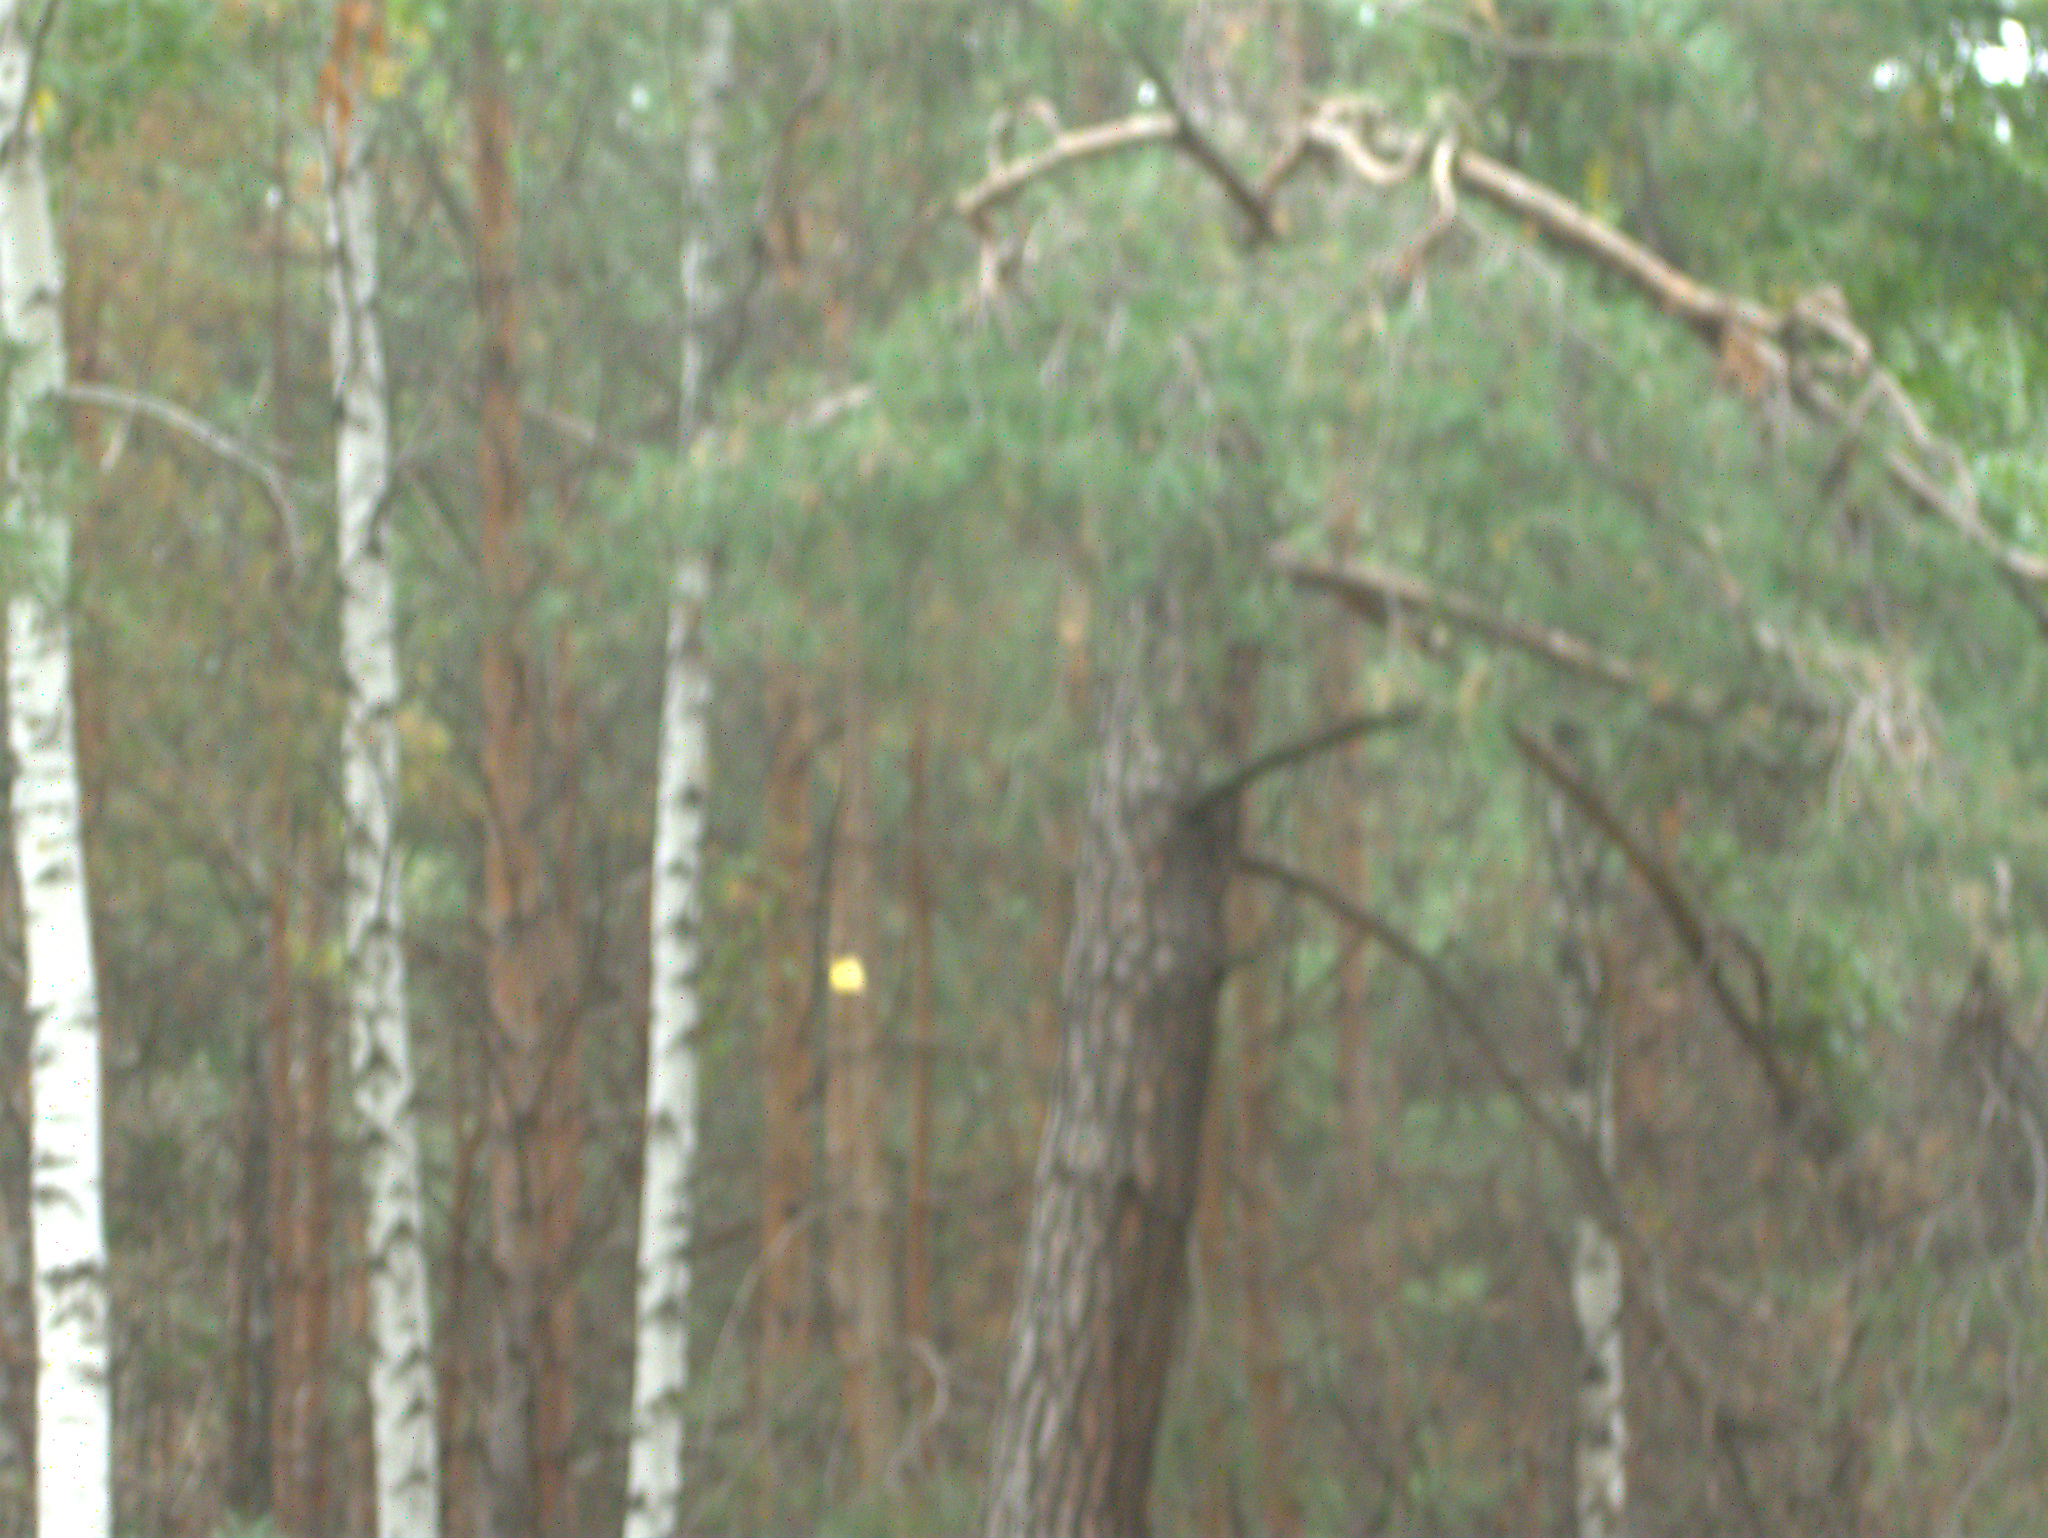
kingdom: Plantae
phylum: Tracheophyta
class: Magnoliopsida
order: Fagales
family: Betulaceae
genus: Betula
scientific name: Betula pendula
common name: Silver birch
